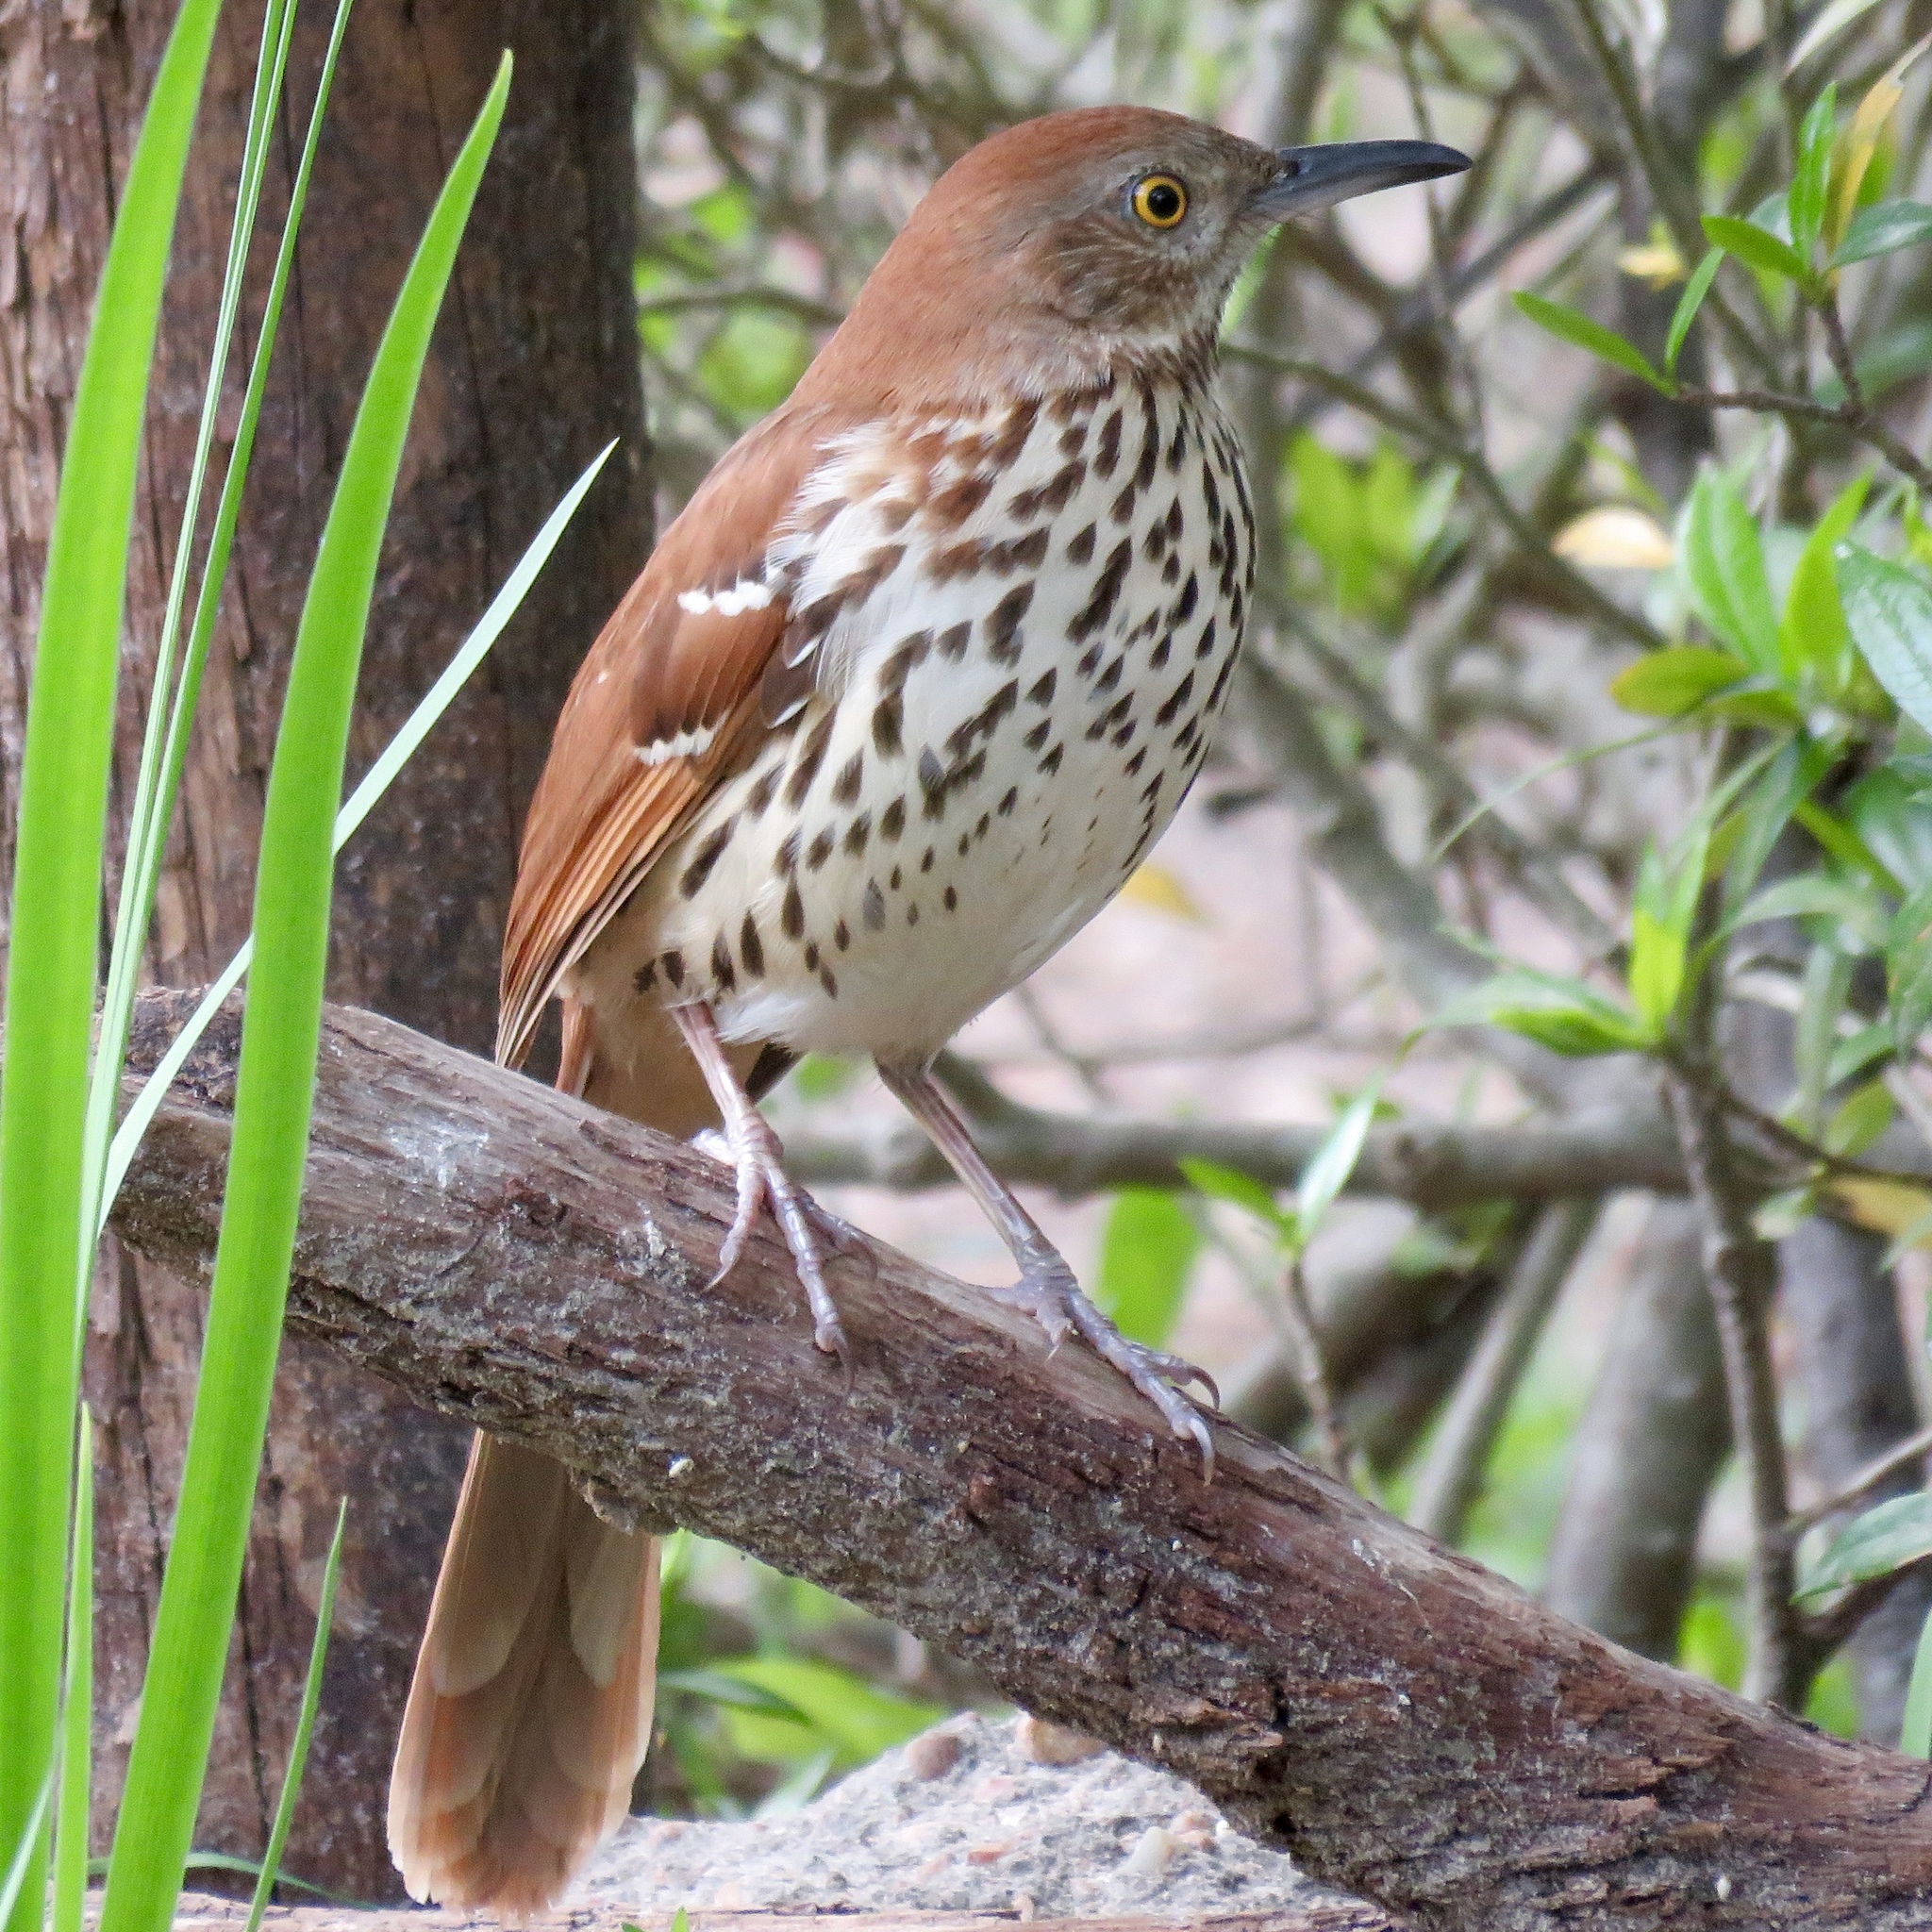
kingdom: Animalia
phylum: Chordata
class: Aves
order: Passeriformes
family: Mimidae
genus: Toxostoma
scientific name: Toxostoma rufum
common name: Brown thrasher
